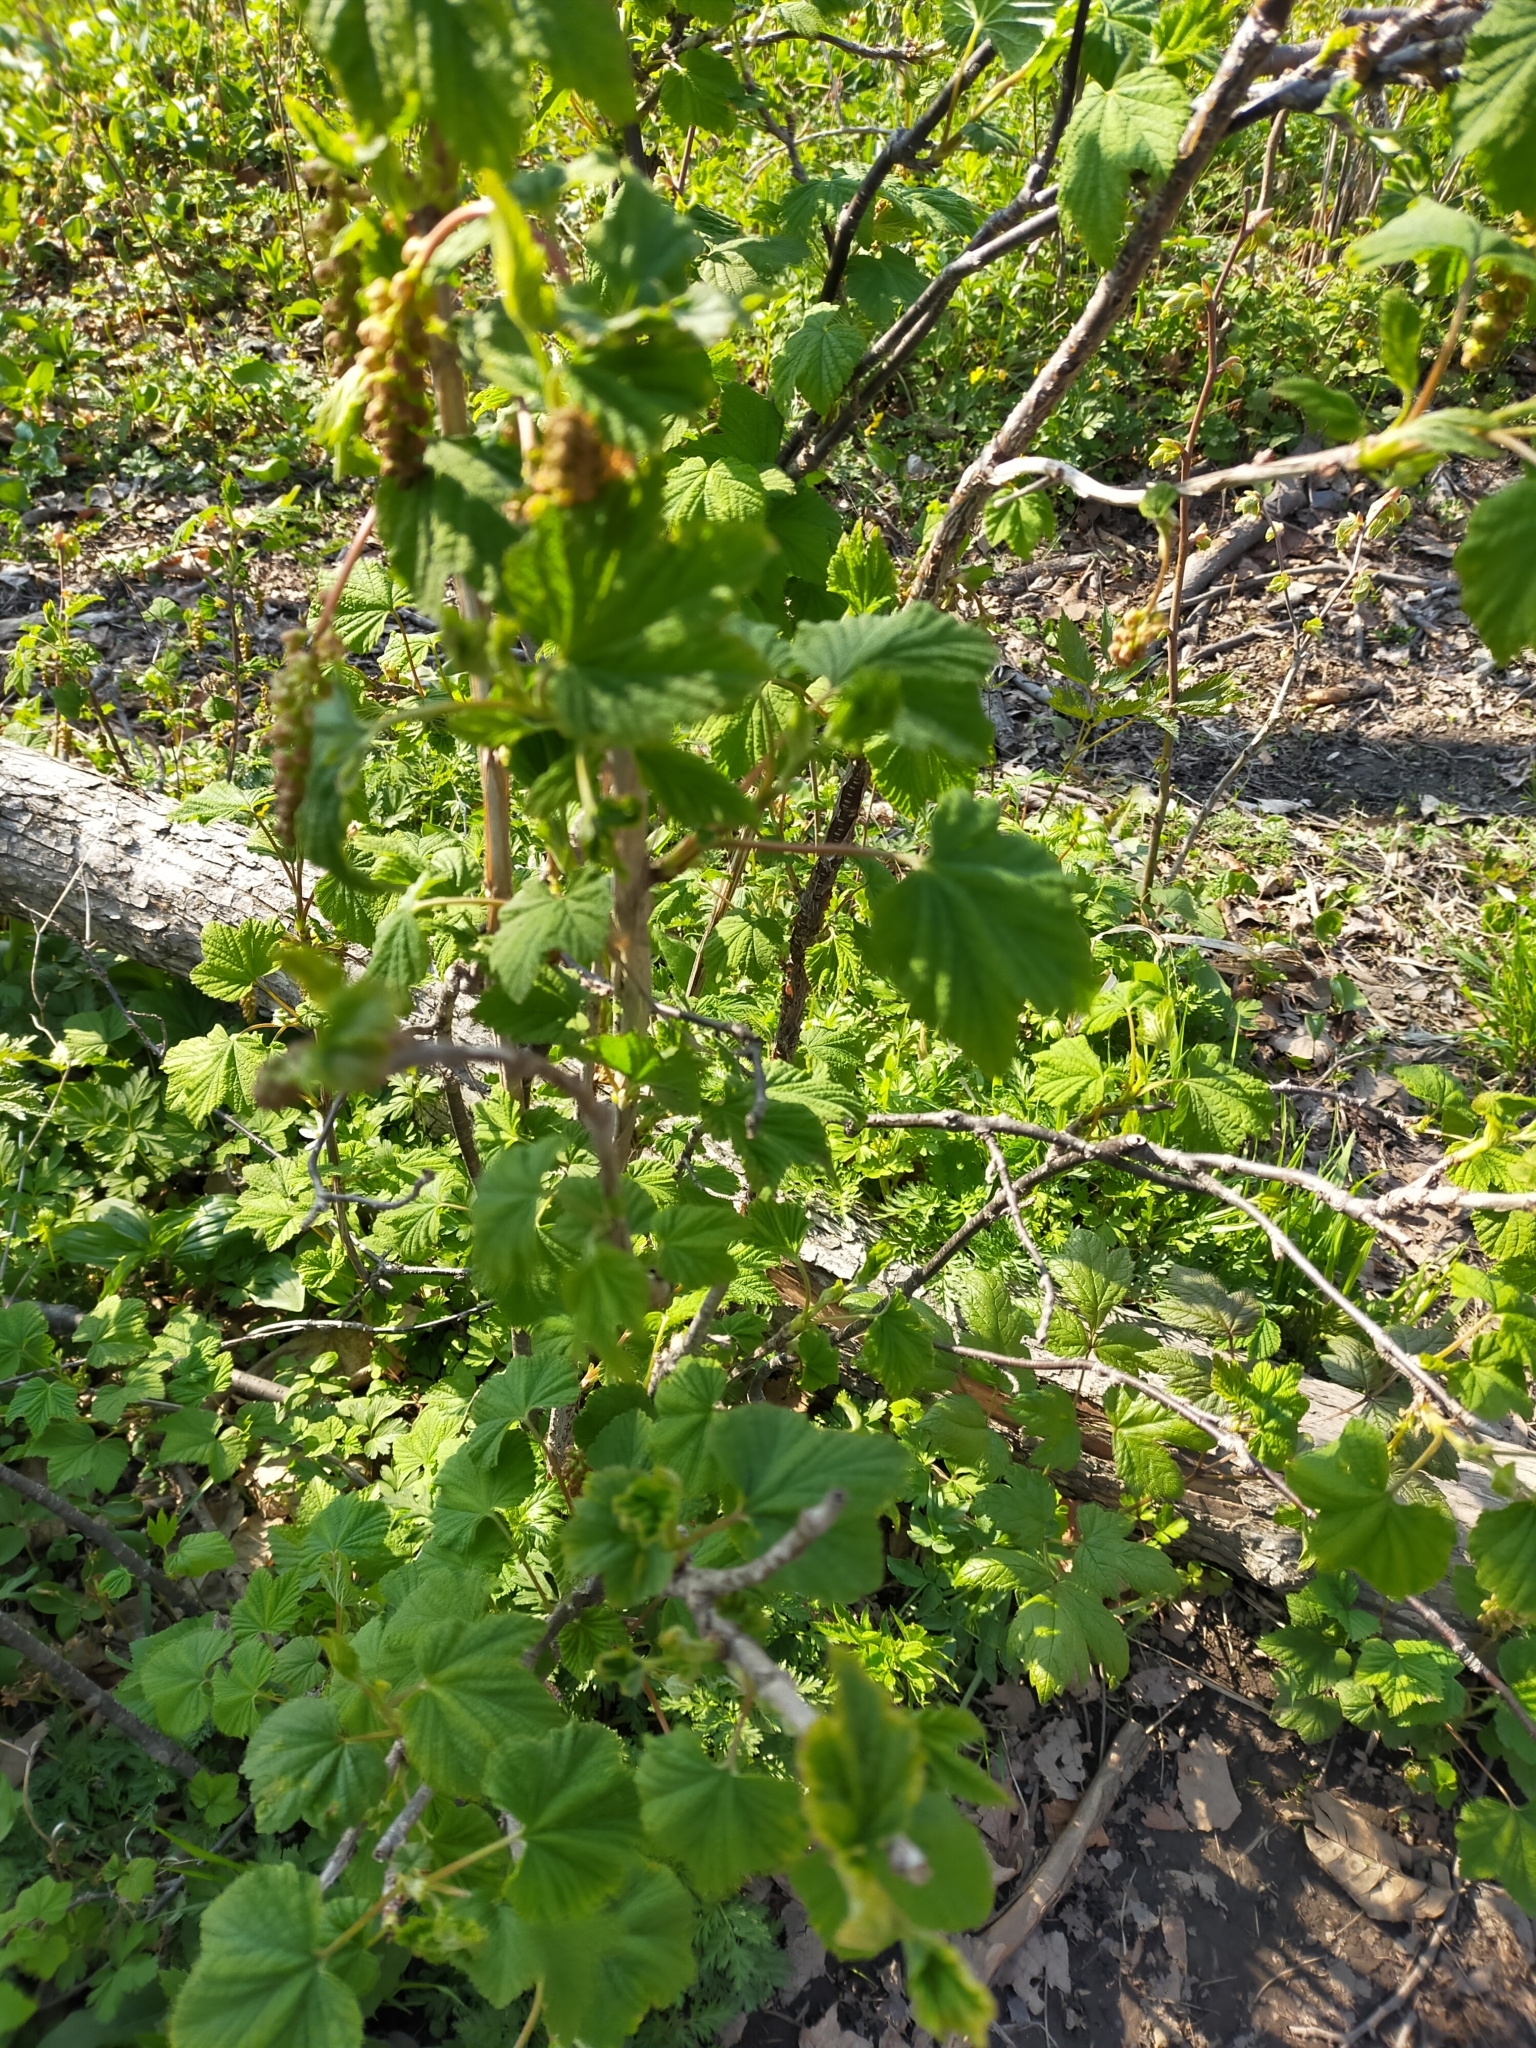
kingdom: Plantae
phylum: Tracheophyta
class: Magnoliopsida
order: Saxifragales
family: Grossulariaceae
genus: Ribes
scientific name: Ribes mandshuricum
